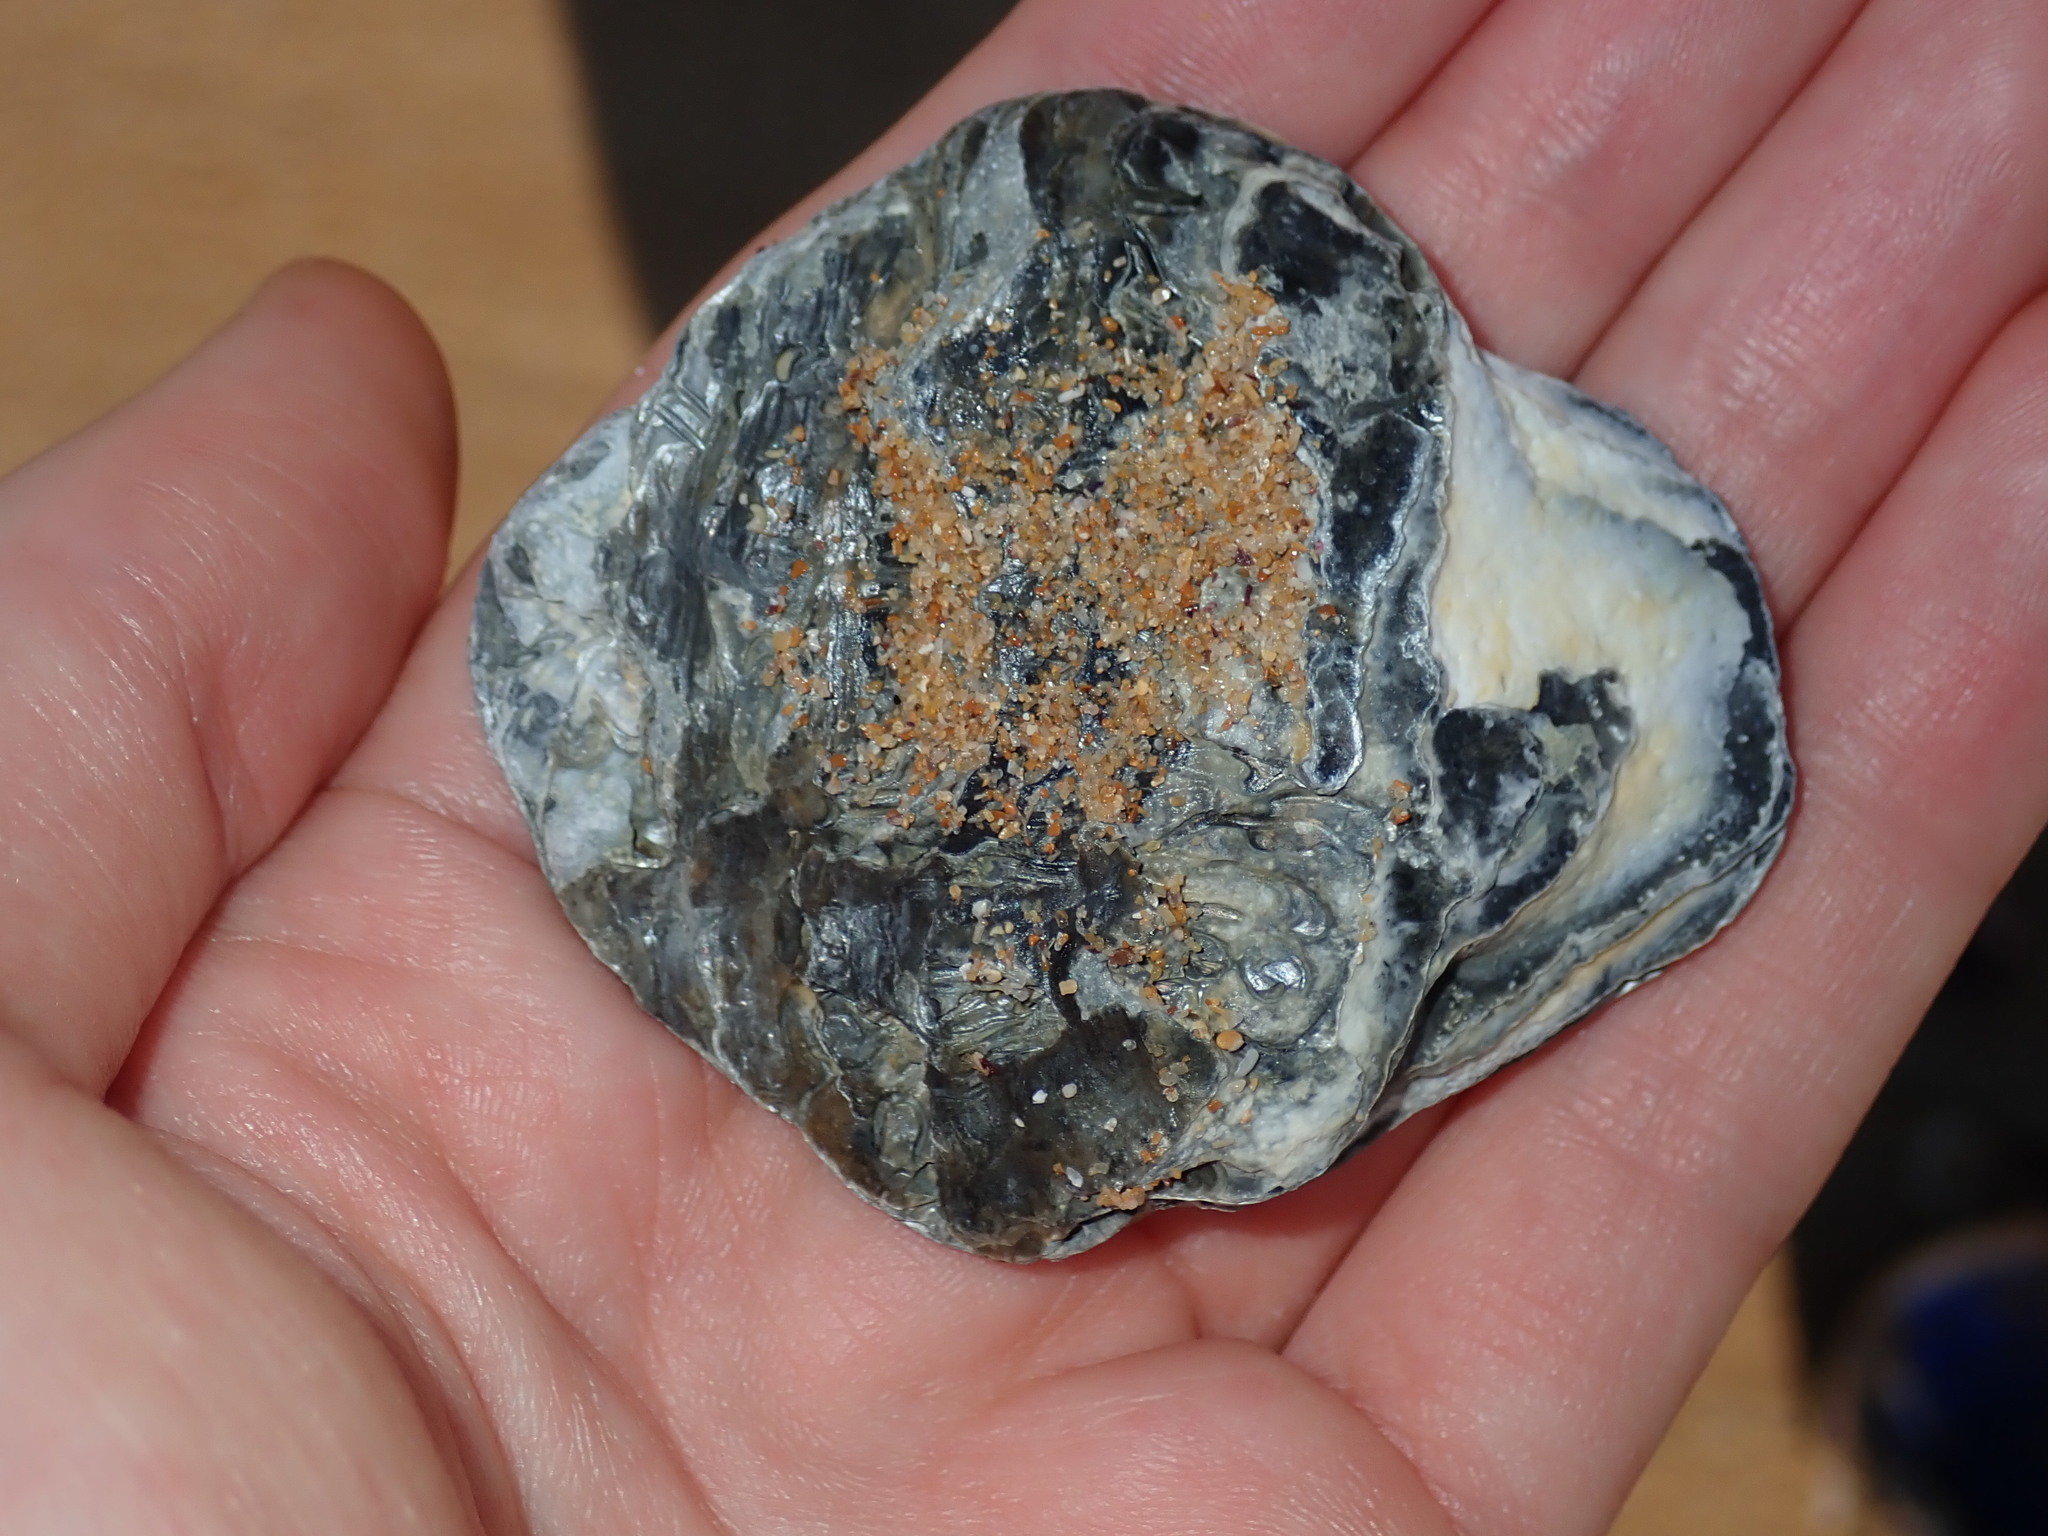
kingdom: Animalia
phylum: Mollusca
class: Bivalvia
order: Ostreida
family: Ostreidae
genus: Ostrea
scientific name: Ostrea angasi
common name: Angasi oyster
